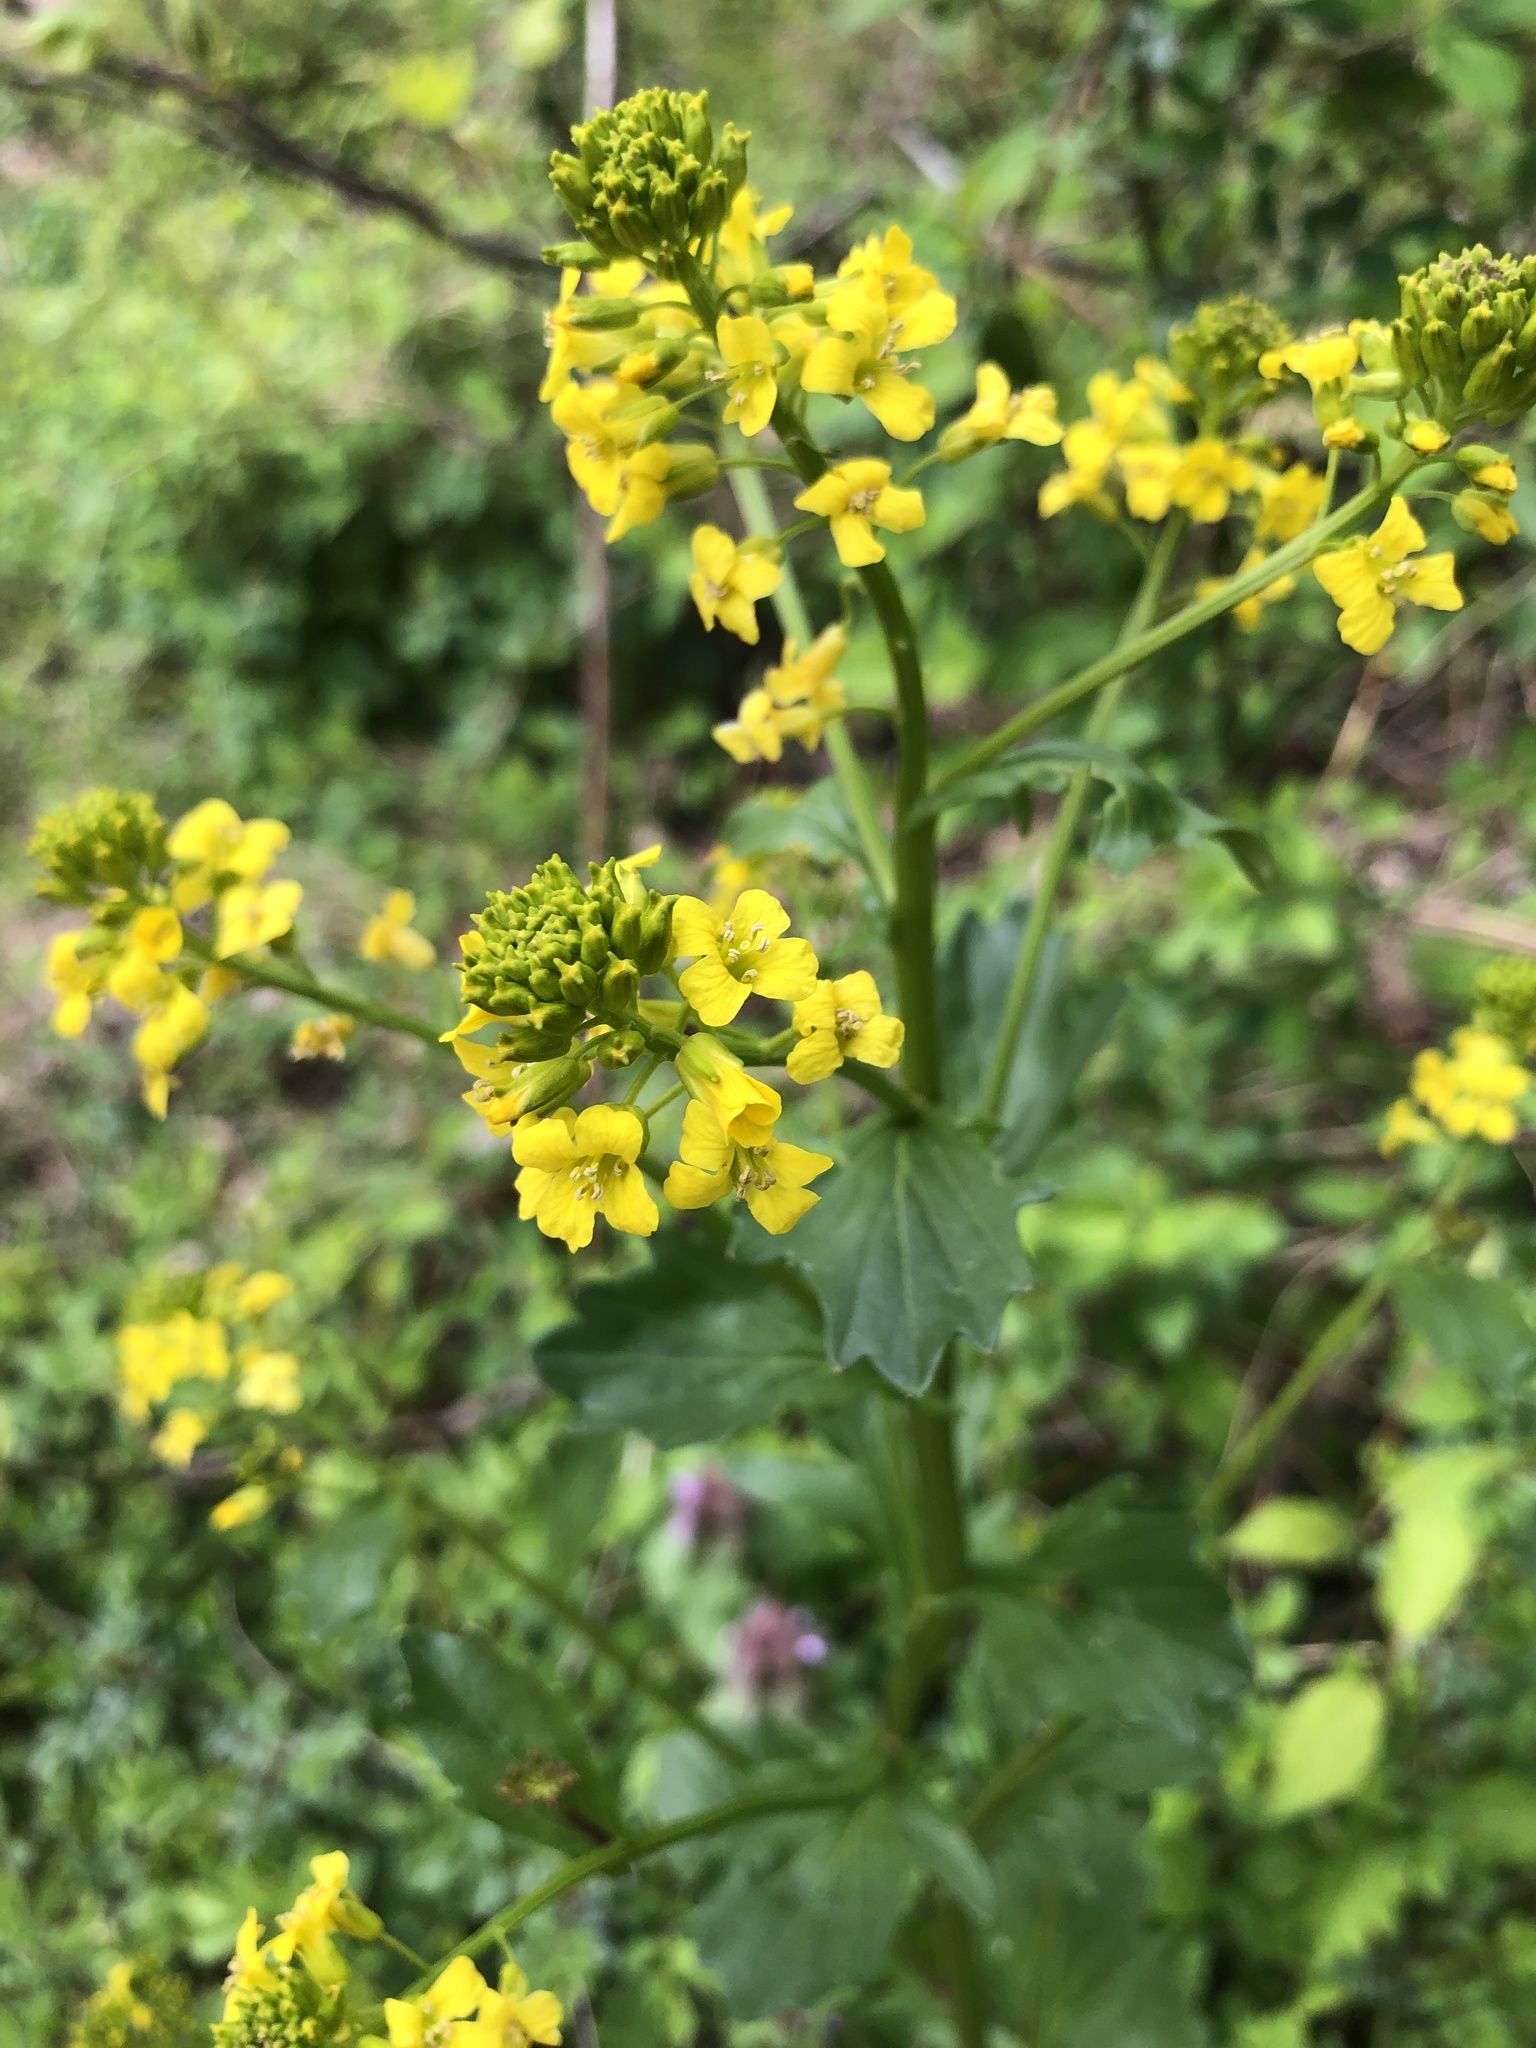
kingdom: Plantae
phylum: Tracheophyta
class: Magnoliopsida
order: Brassicales
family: Brassicaceae
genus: Barbarea
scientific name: Barbarea vulgaris
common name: Cressy-greens
